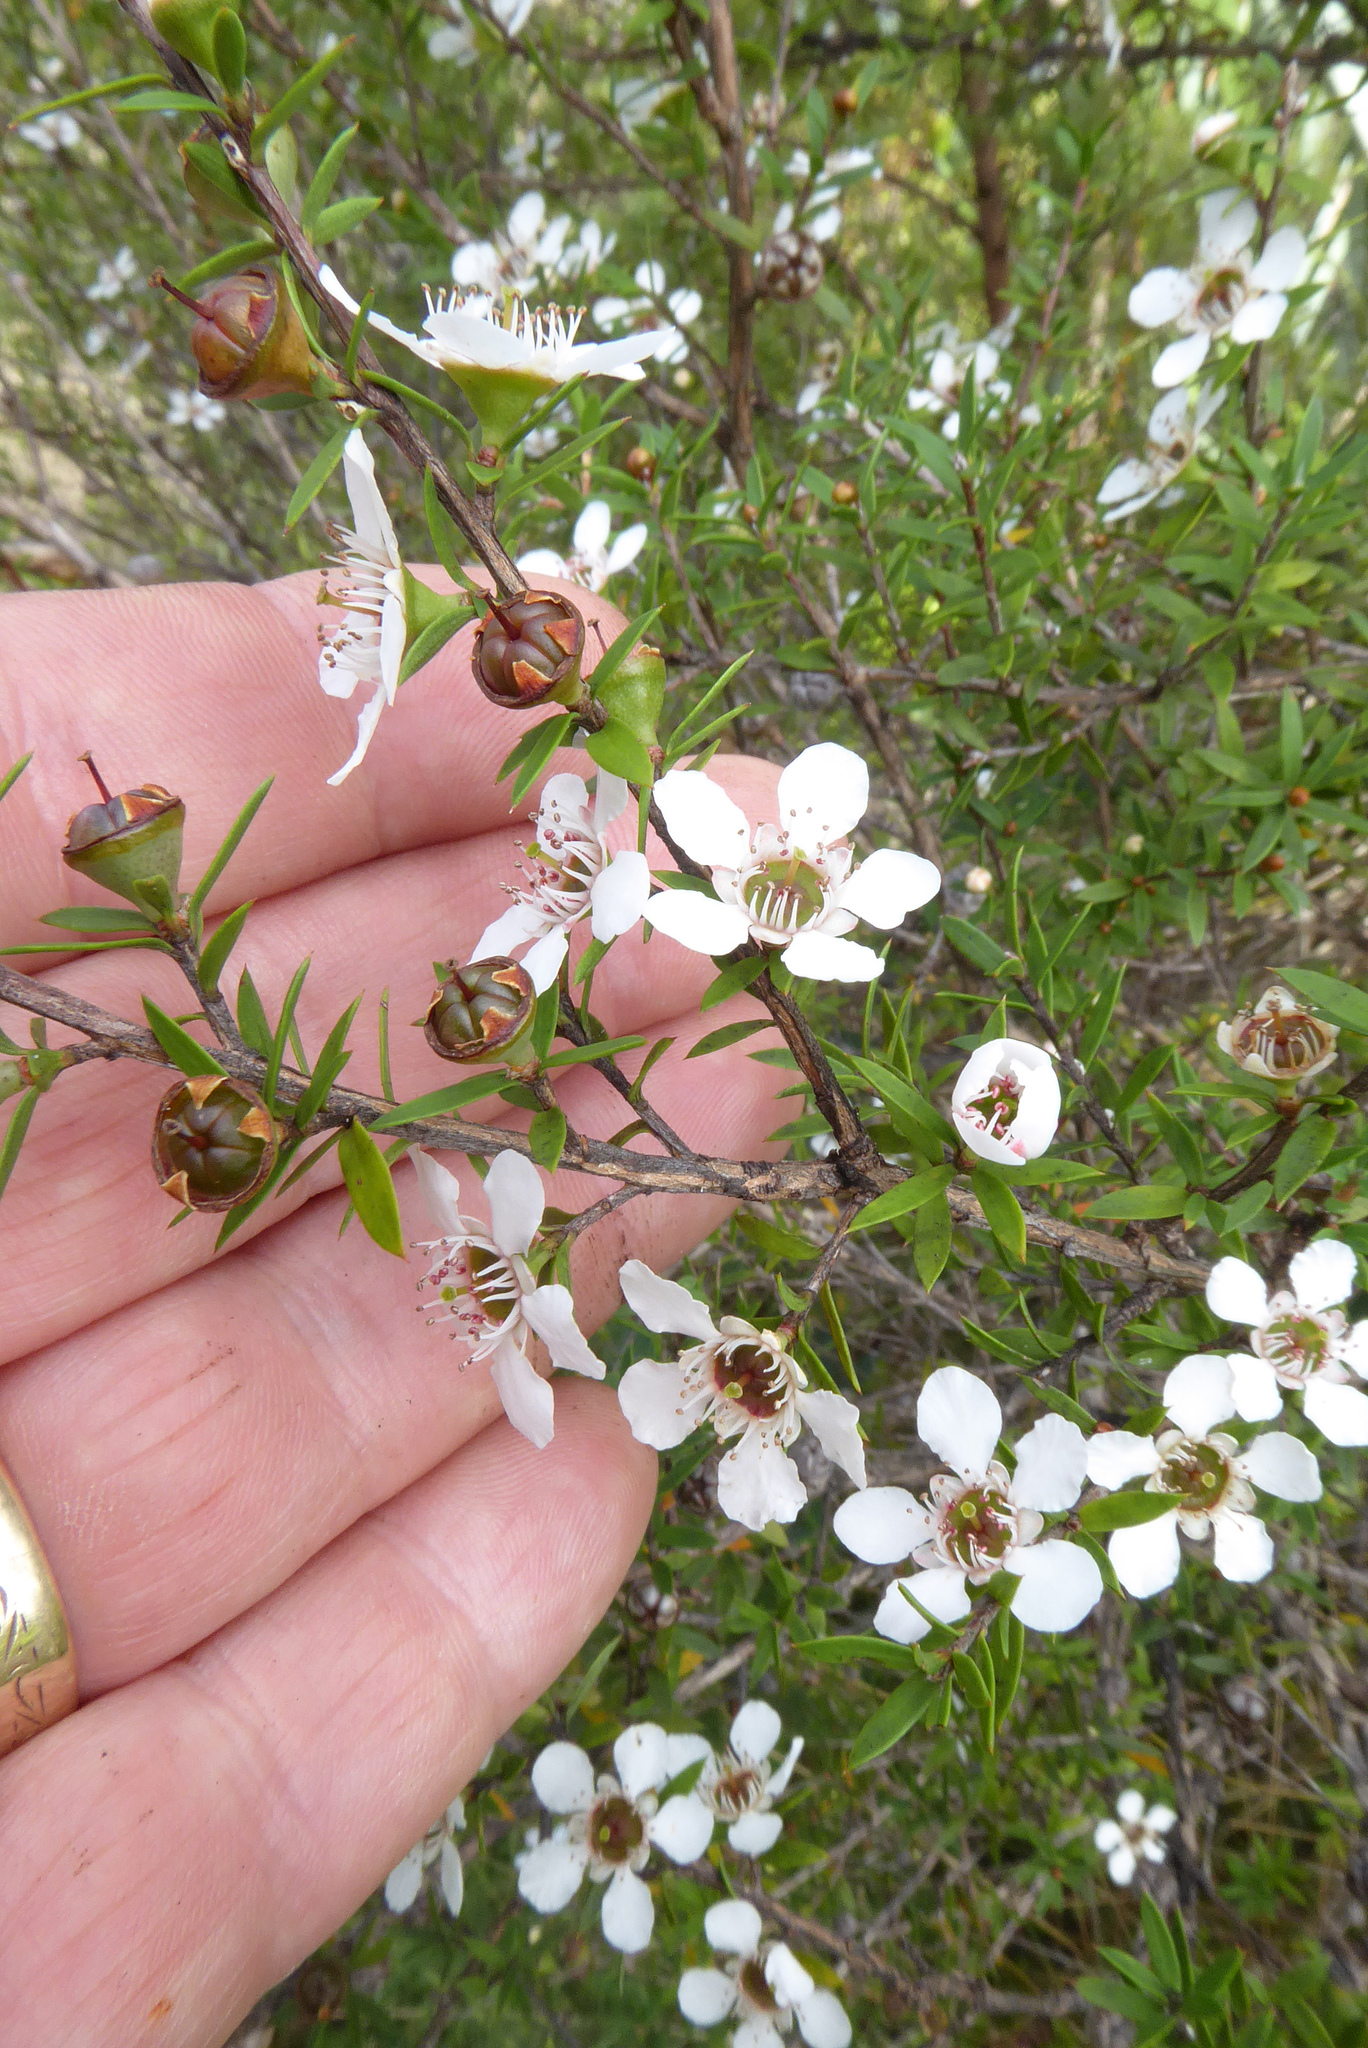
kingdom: Plantae
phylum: Tracheophyta
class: Magnoliopsida
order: Myrtales
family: Myrtaceae
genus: Leptospermum
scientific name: Leptospermum scoparium
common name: Broom tea-tree
